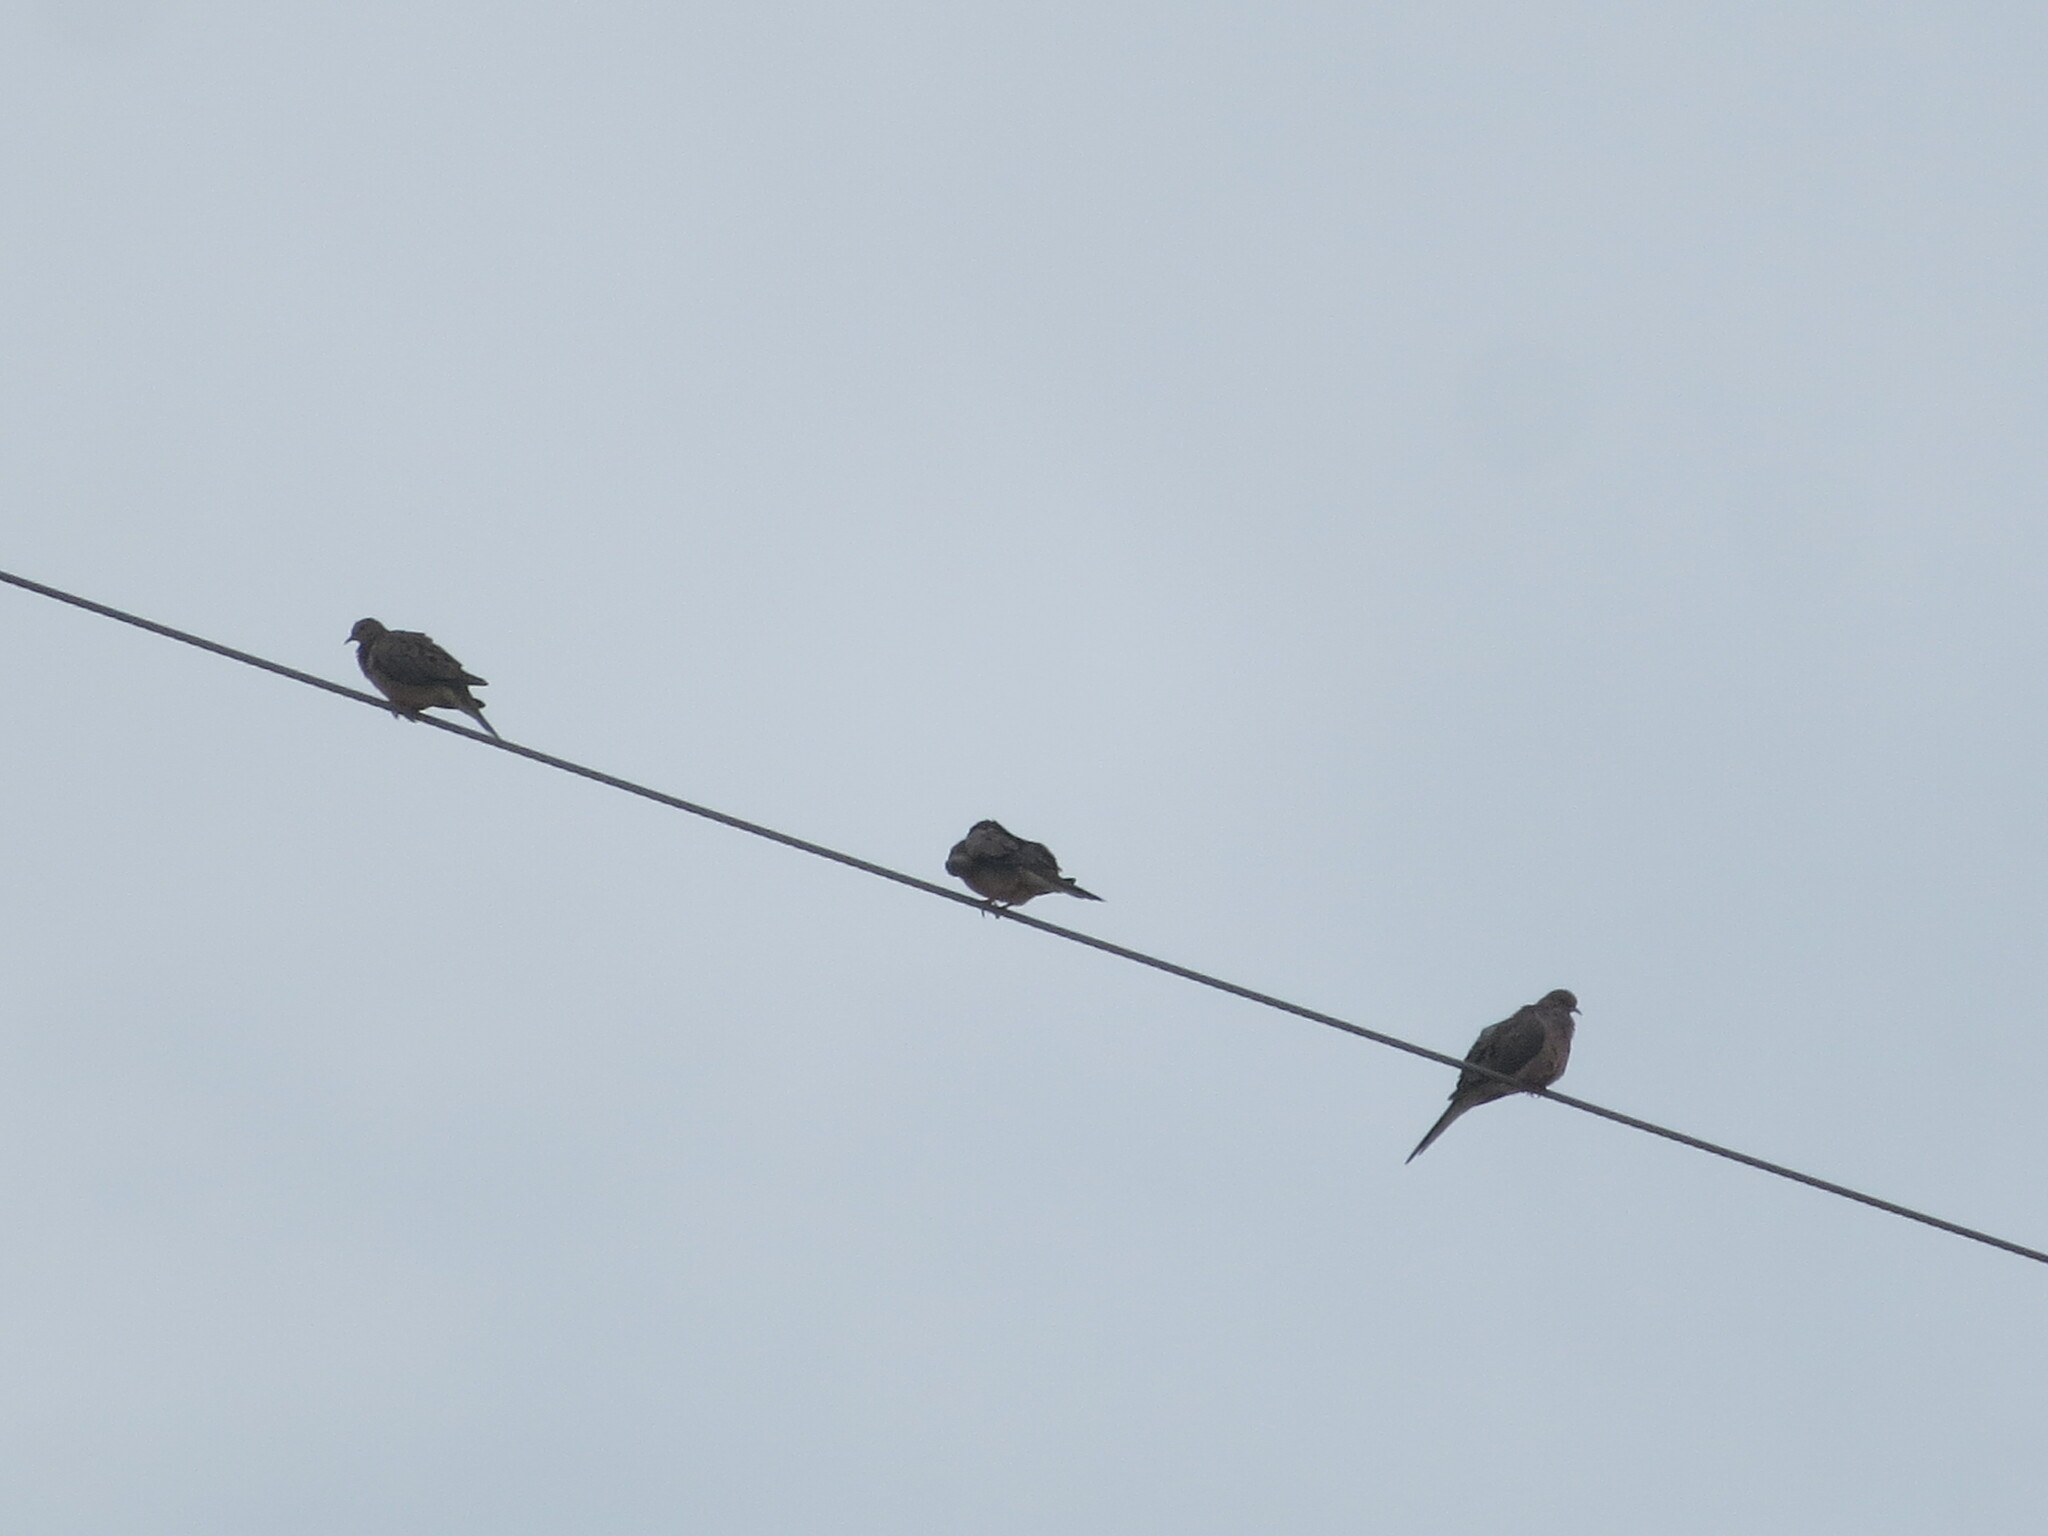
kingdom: Animalia
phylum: Chordata
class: Aves
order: Columbiformes
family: Columbidae
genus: Zenaida
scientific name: Zenaida macroura
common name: Mourning dove
